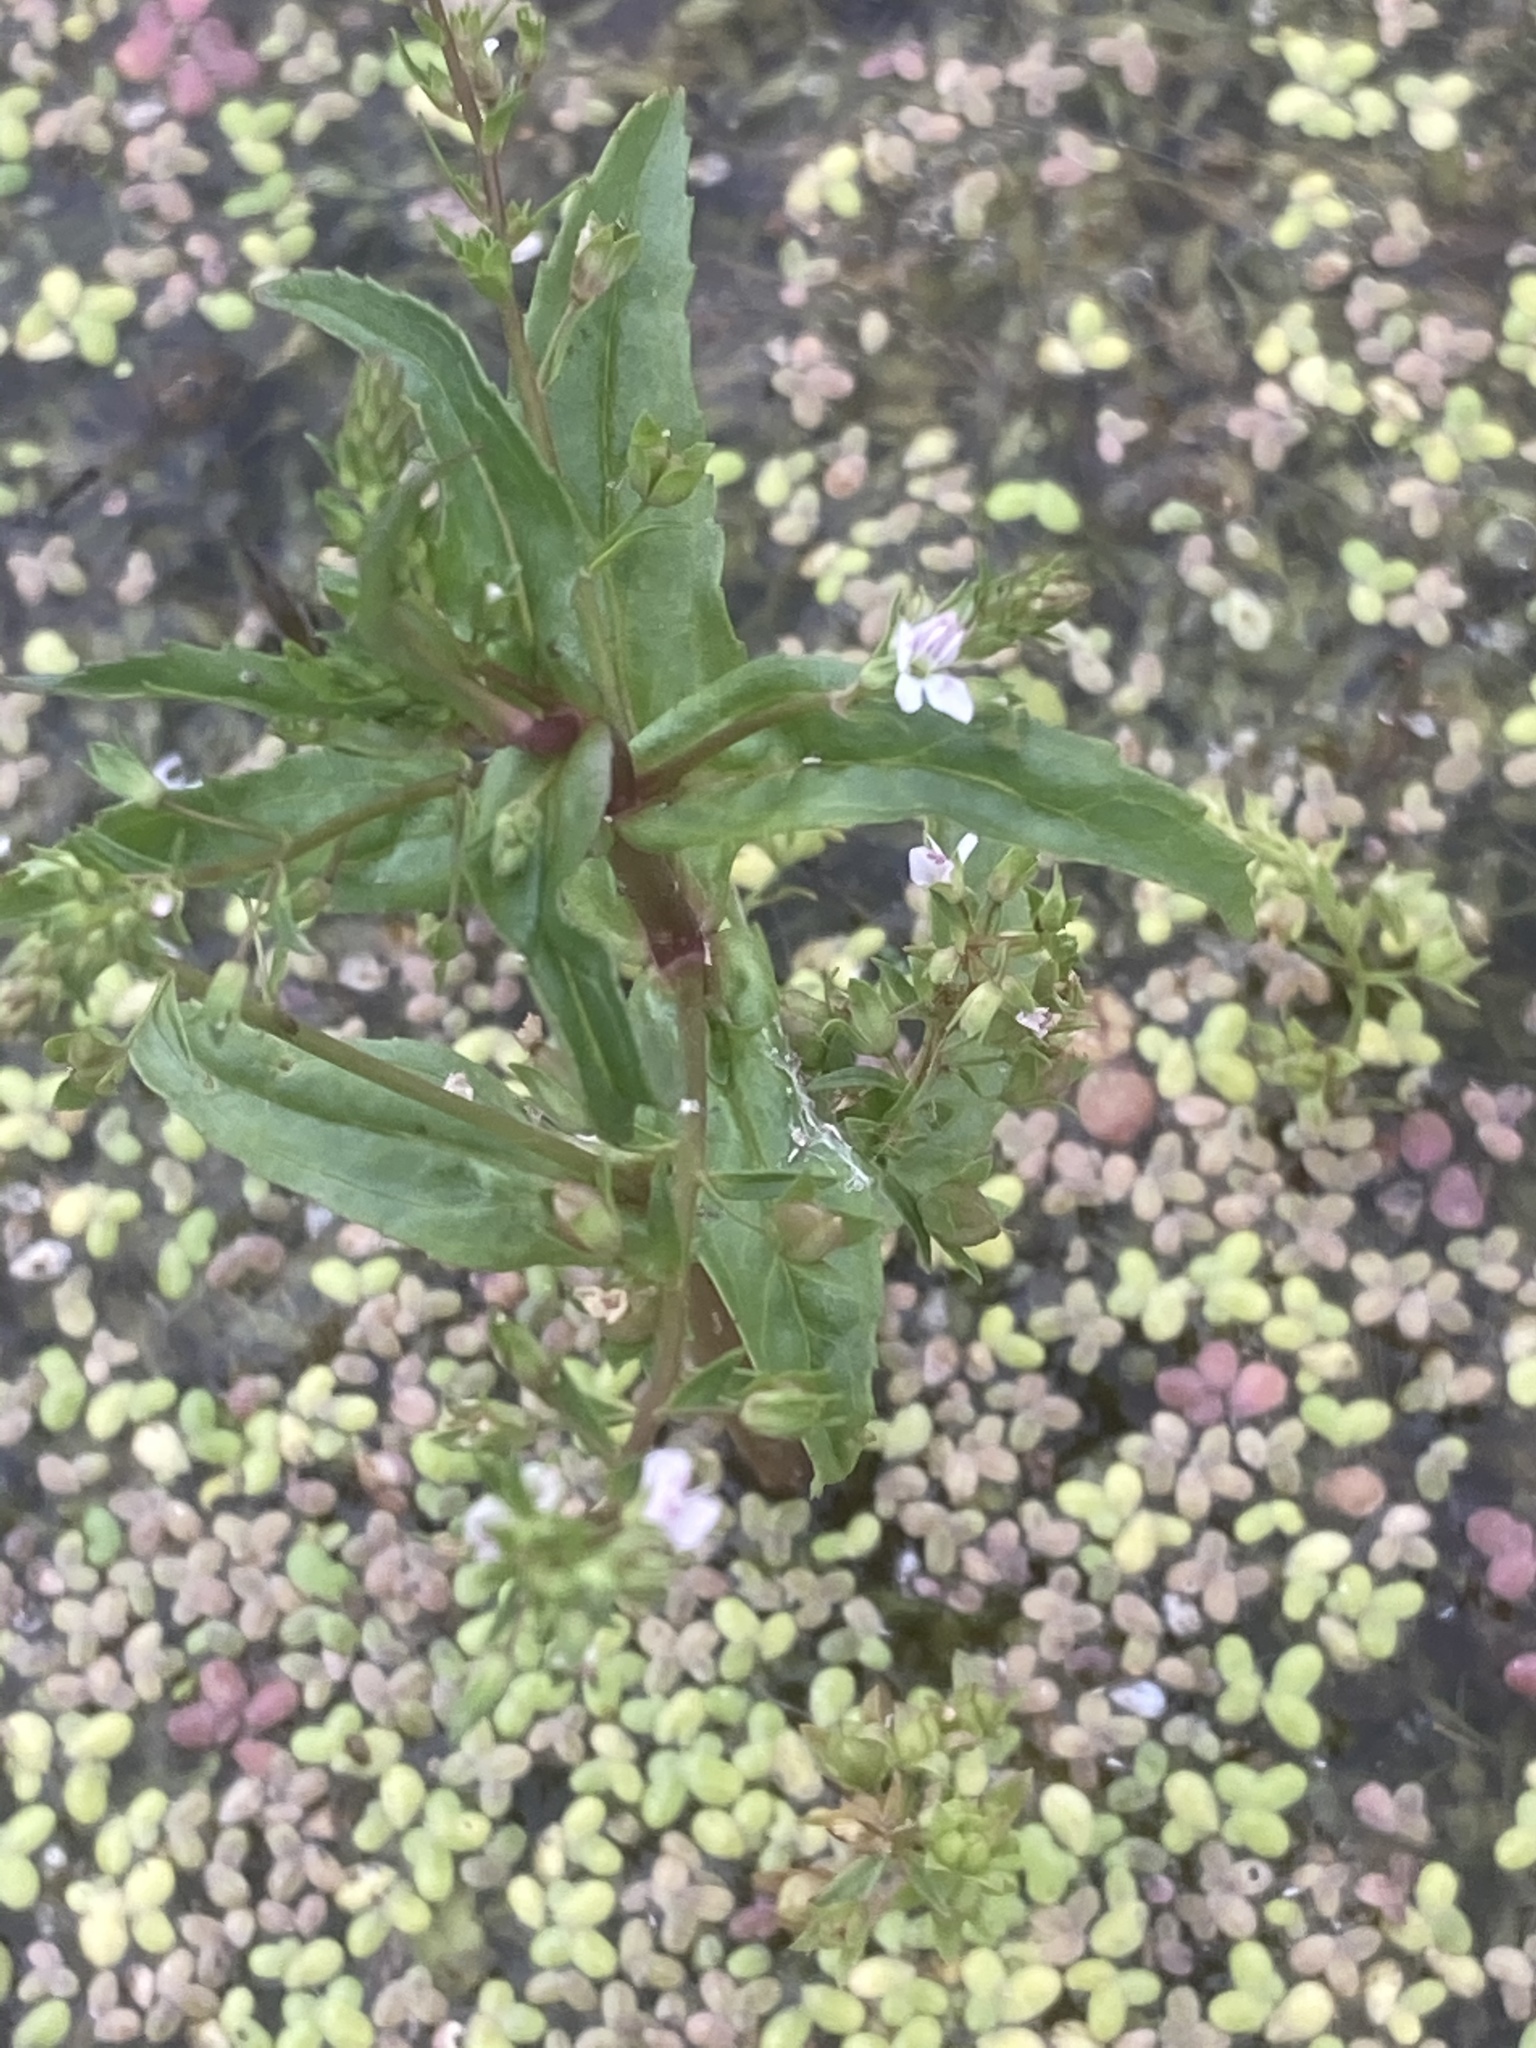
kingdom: Plantae
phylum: Tracheophyta
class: Magnoliopsida
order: Lamiales
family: Plantaginaceae
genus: Veronica
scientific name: Veronica anagallis-aquatica
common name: Water speedwell
